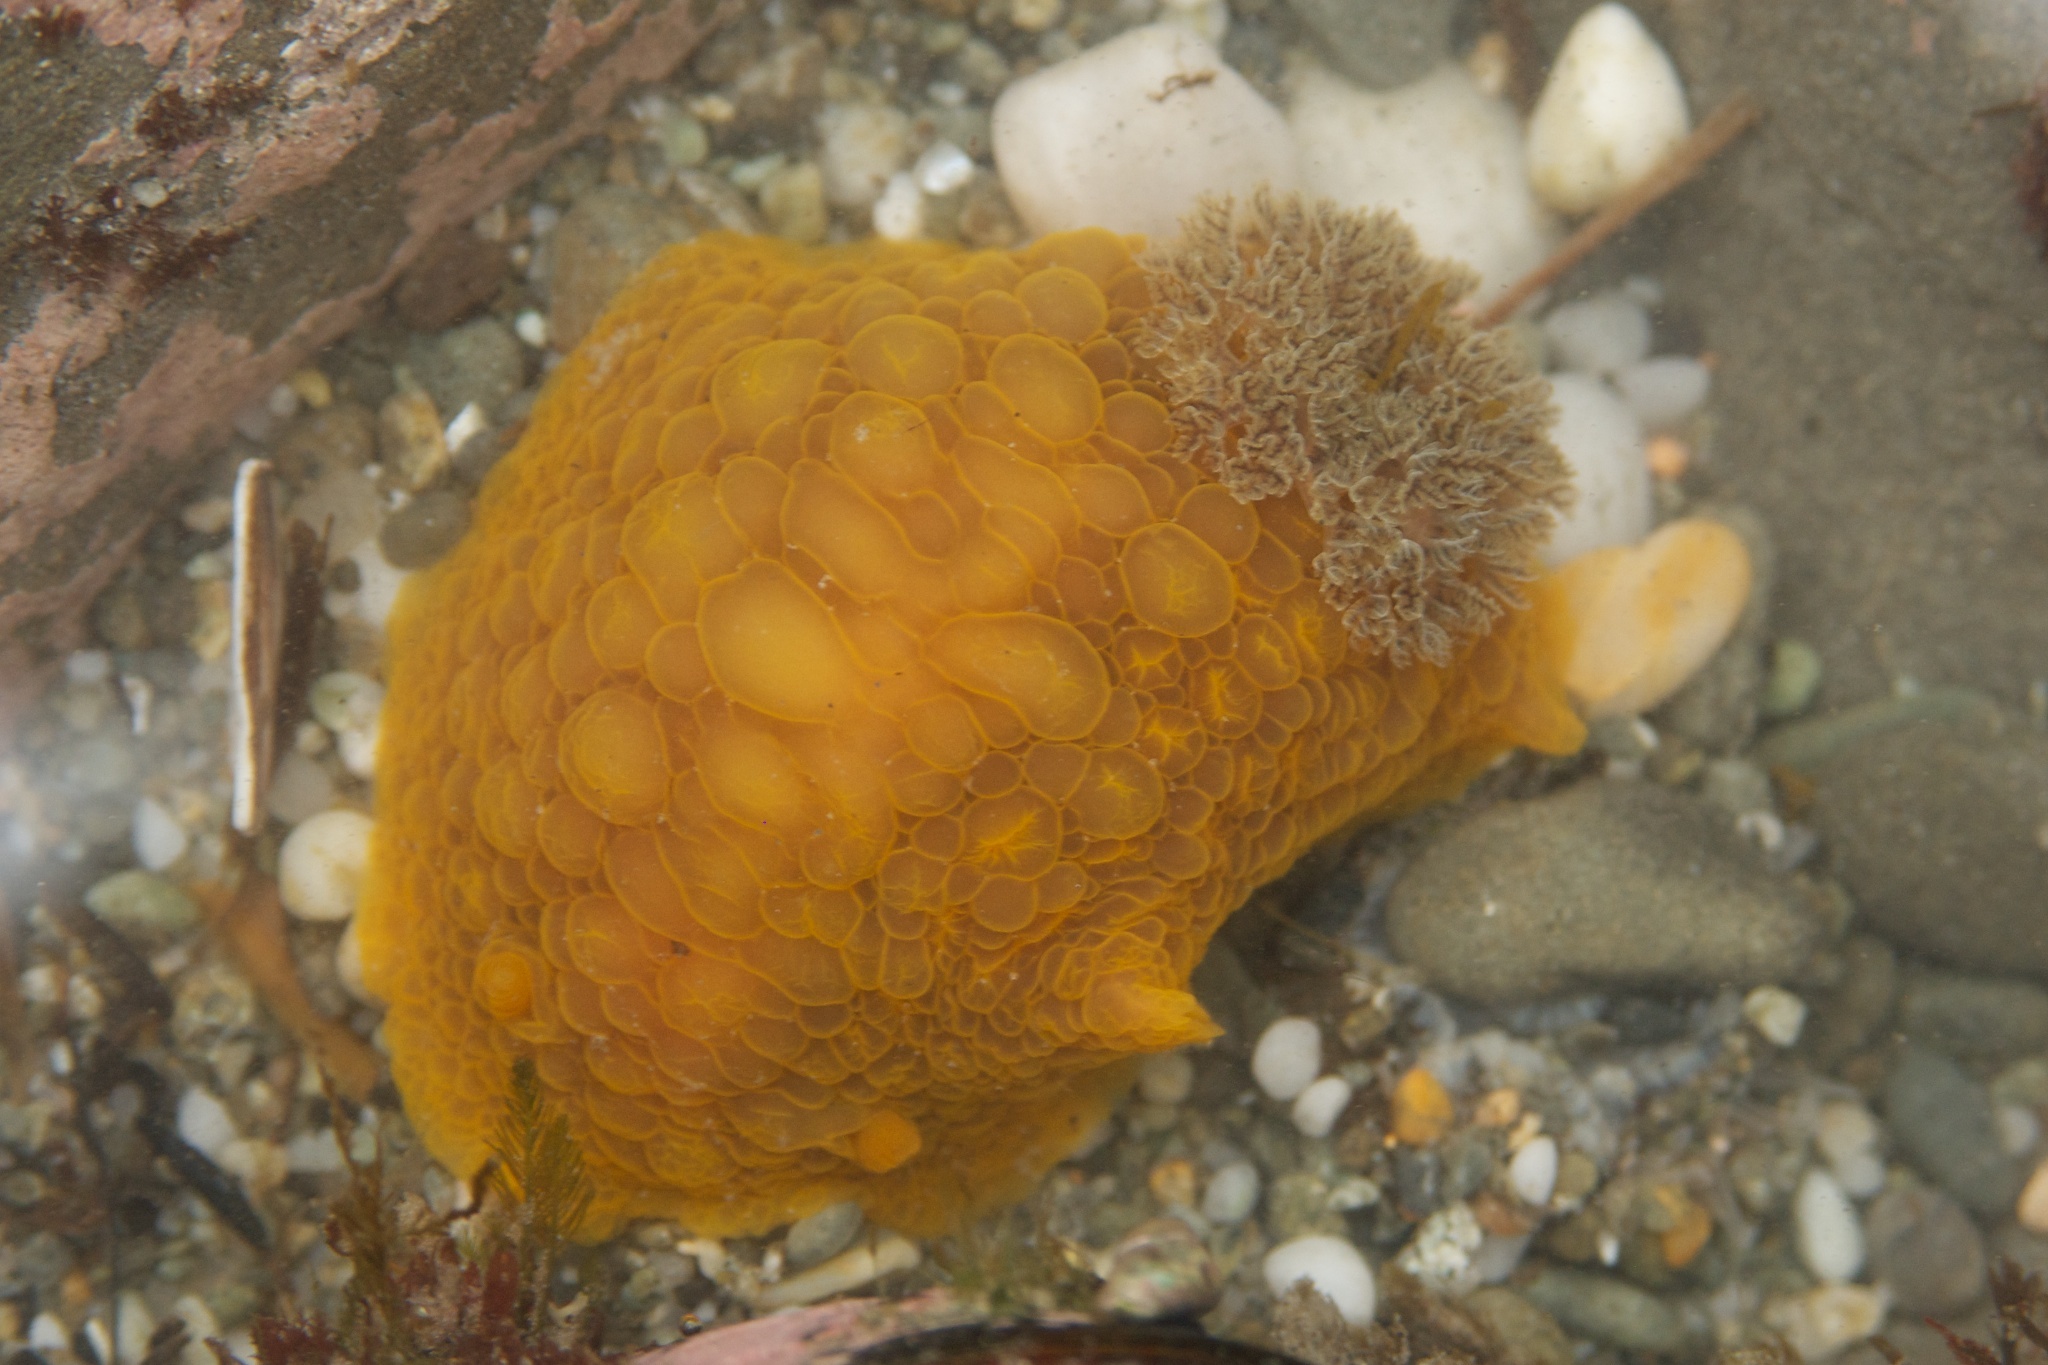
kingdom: Animalia
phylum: Mollusca
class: Gastropoda
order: Nudibranchia
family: Dorididae
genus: Doris
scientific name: Doris wellingtonensis
